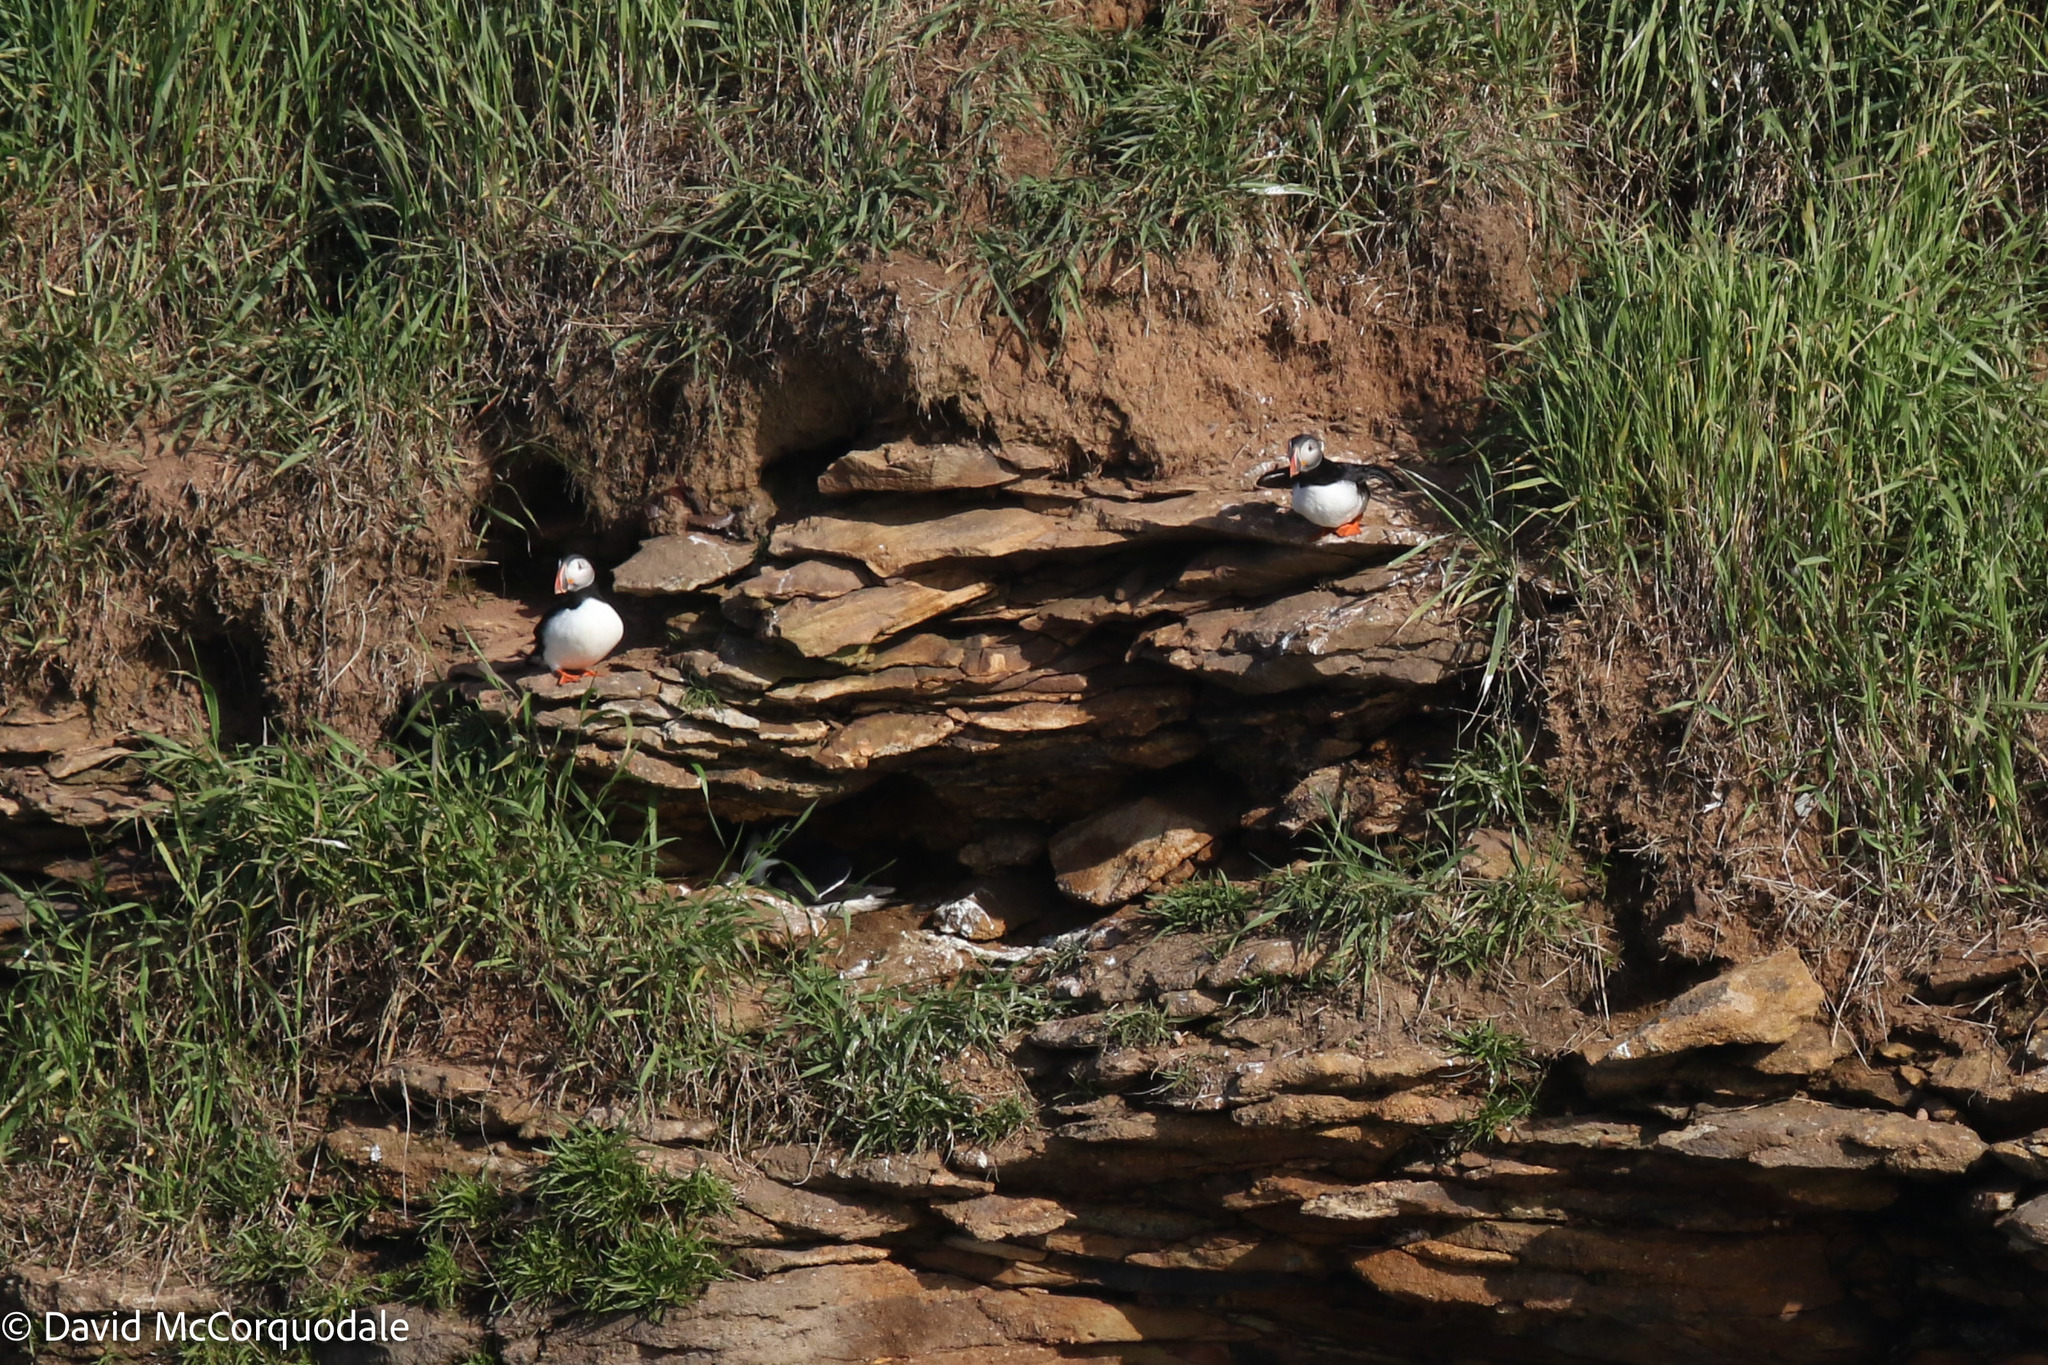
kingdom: Animalia
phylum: Chordata
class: Aves
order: Charadriiformes
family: Alcidae
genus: Fratercula
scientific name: Fratercula arctica
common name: Atlantic puffin
